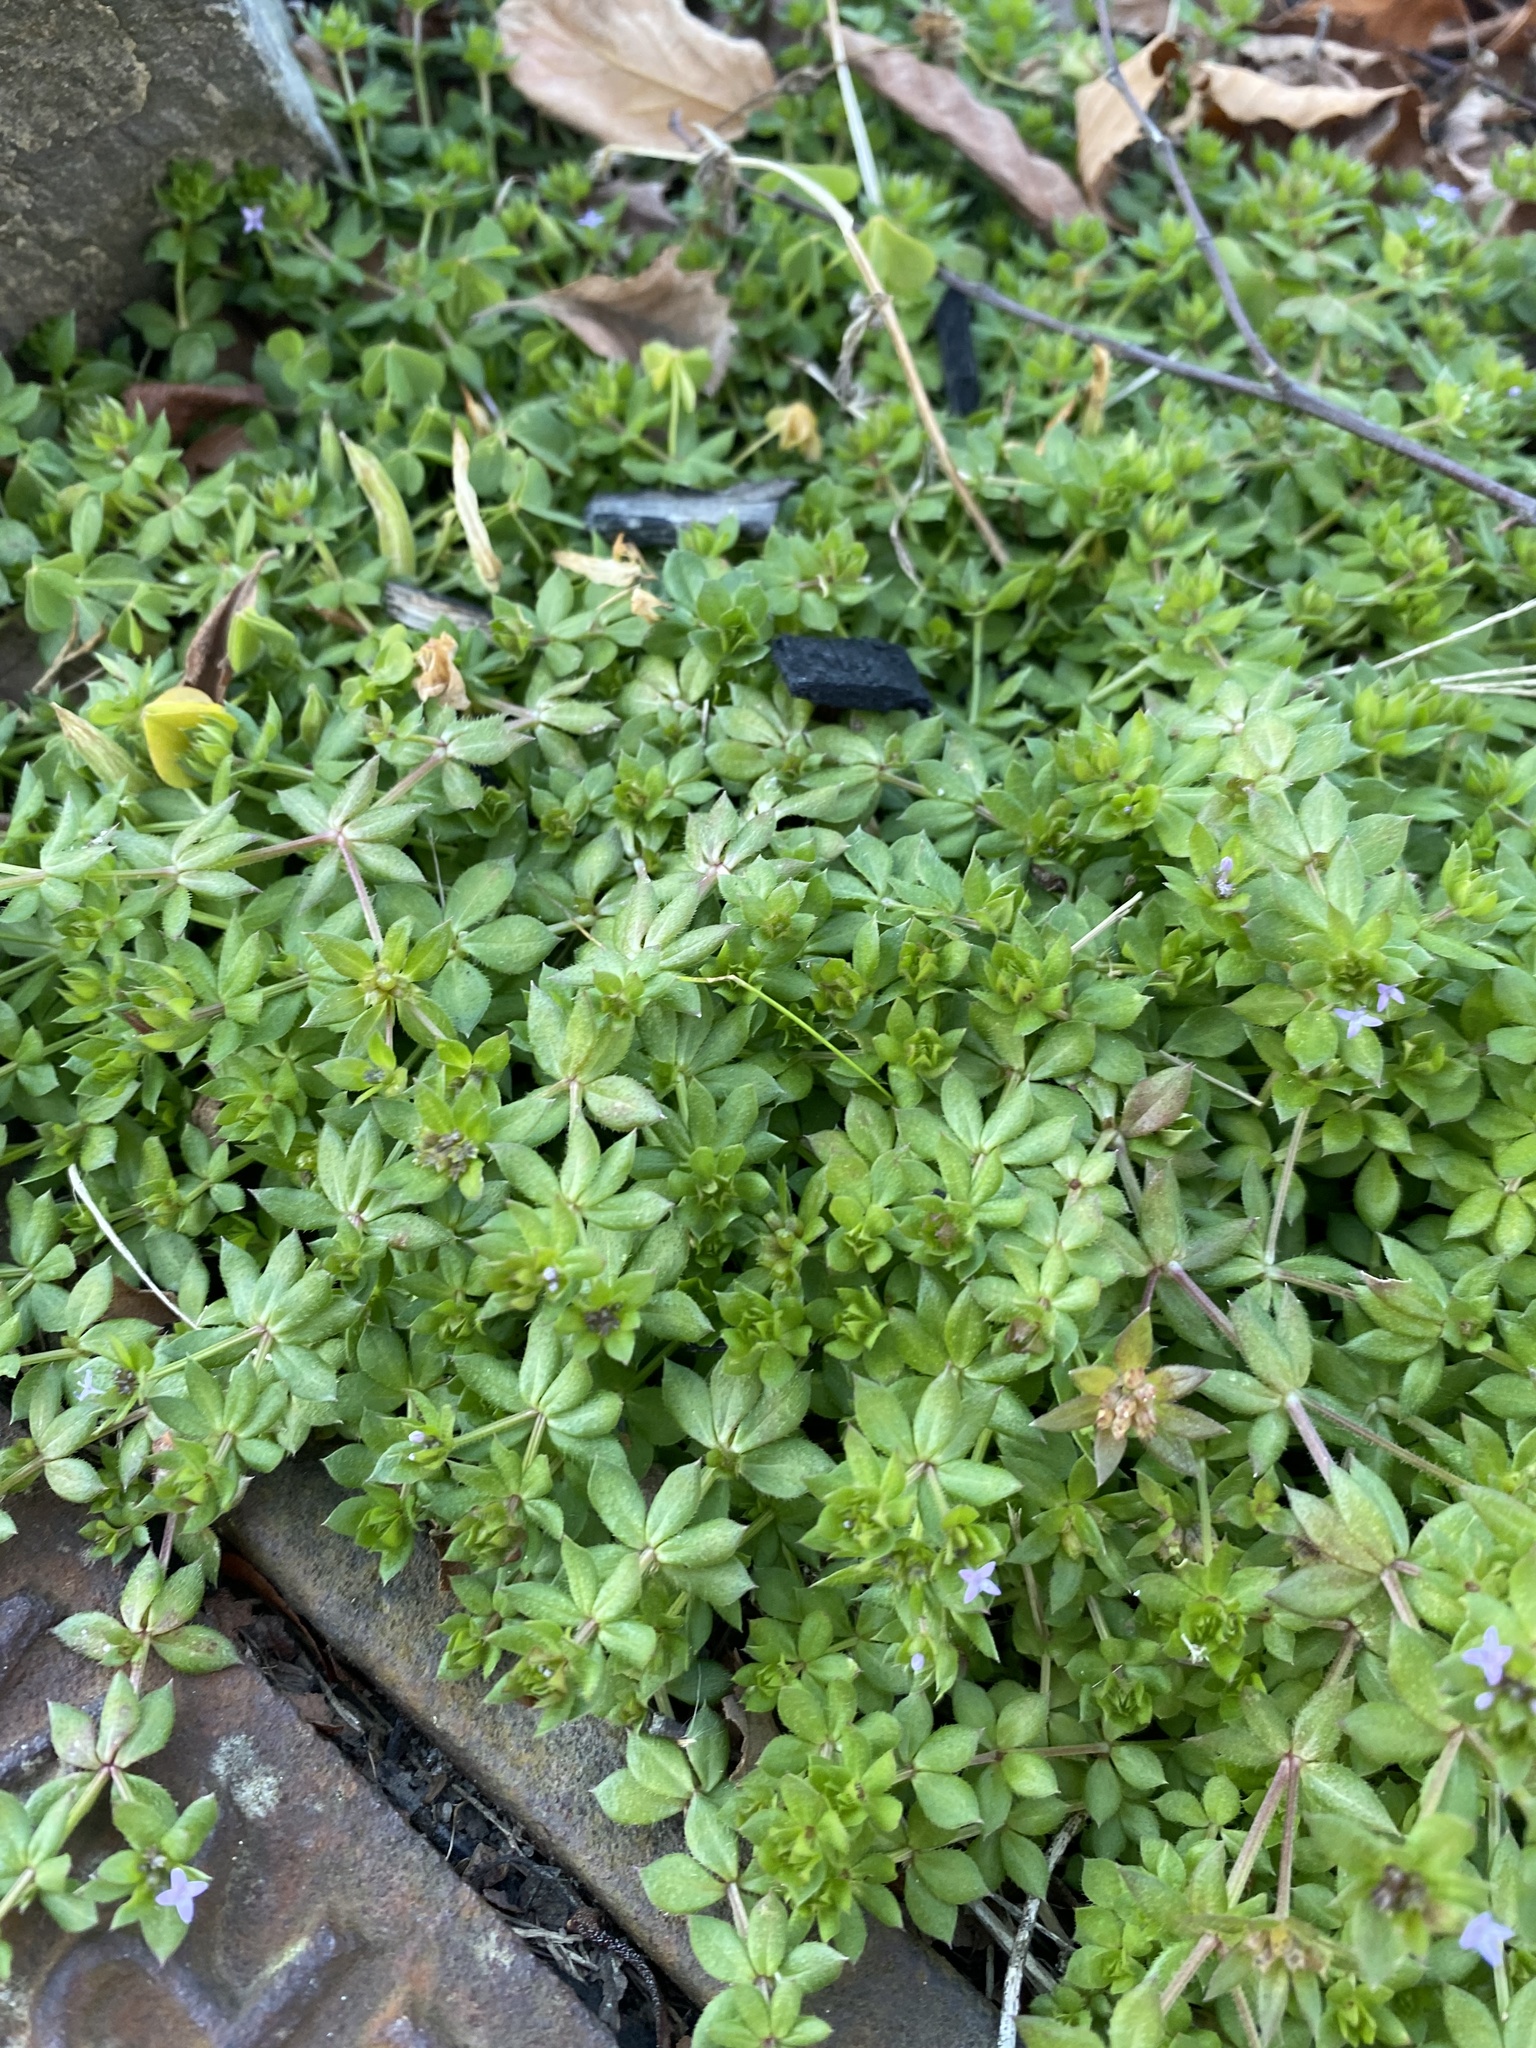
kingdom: Plantae
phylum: Tracheophyta
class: Magnoliopsida
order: Gentianales
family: Rubiaceae
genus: Sherardia
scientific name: Sherardia arvensis
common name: Field madder
